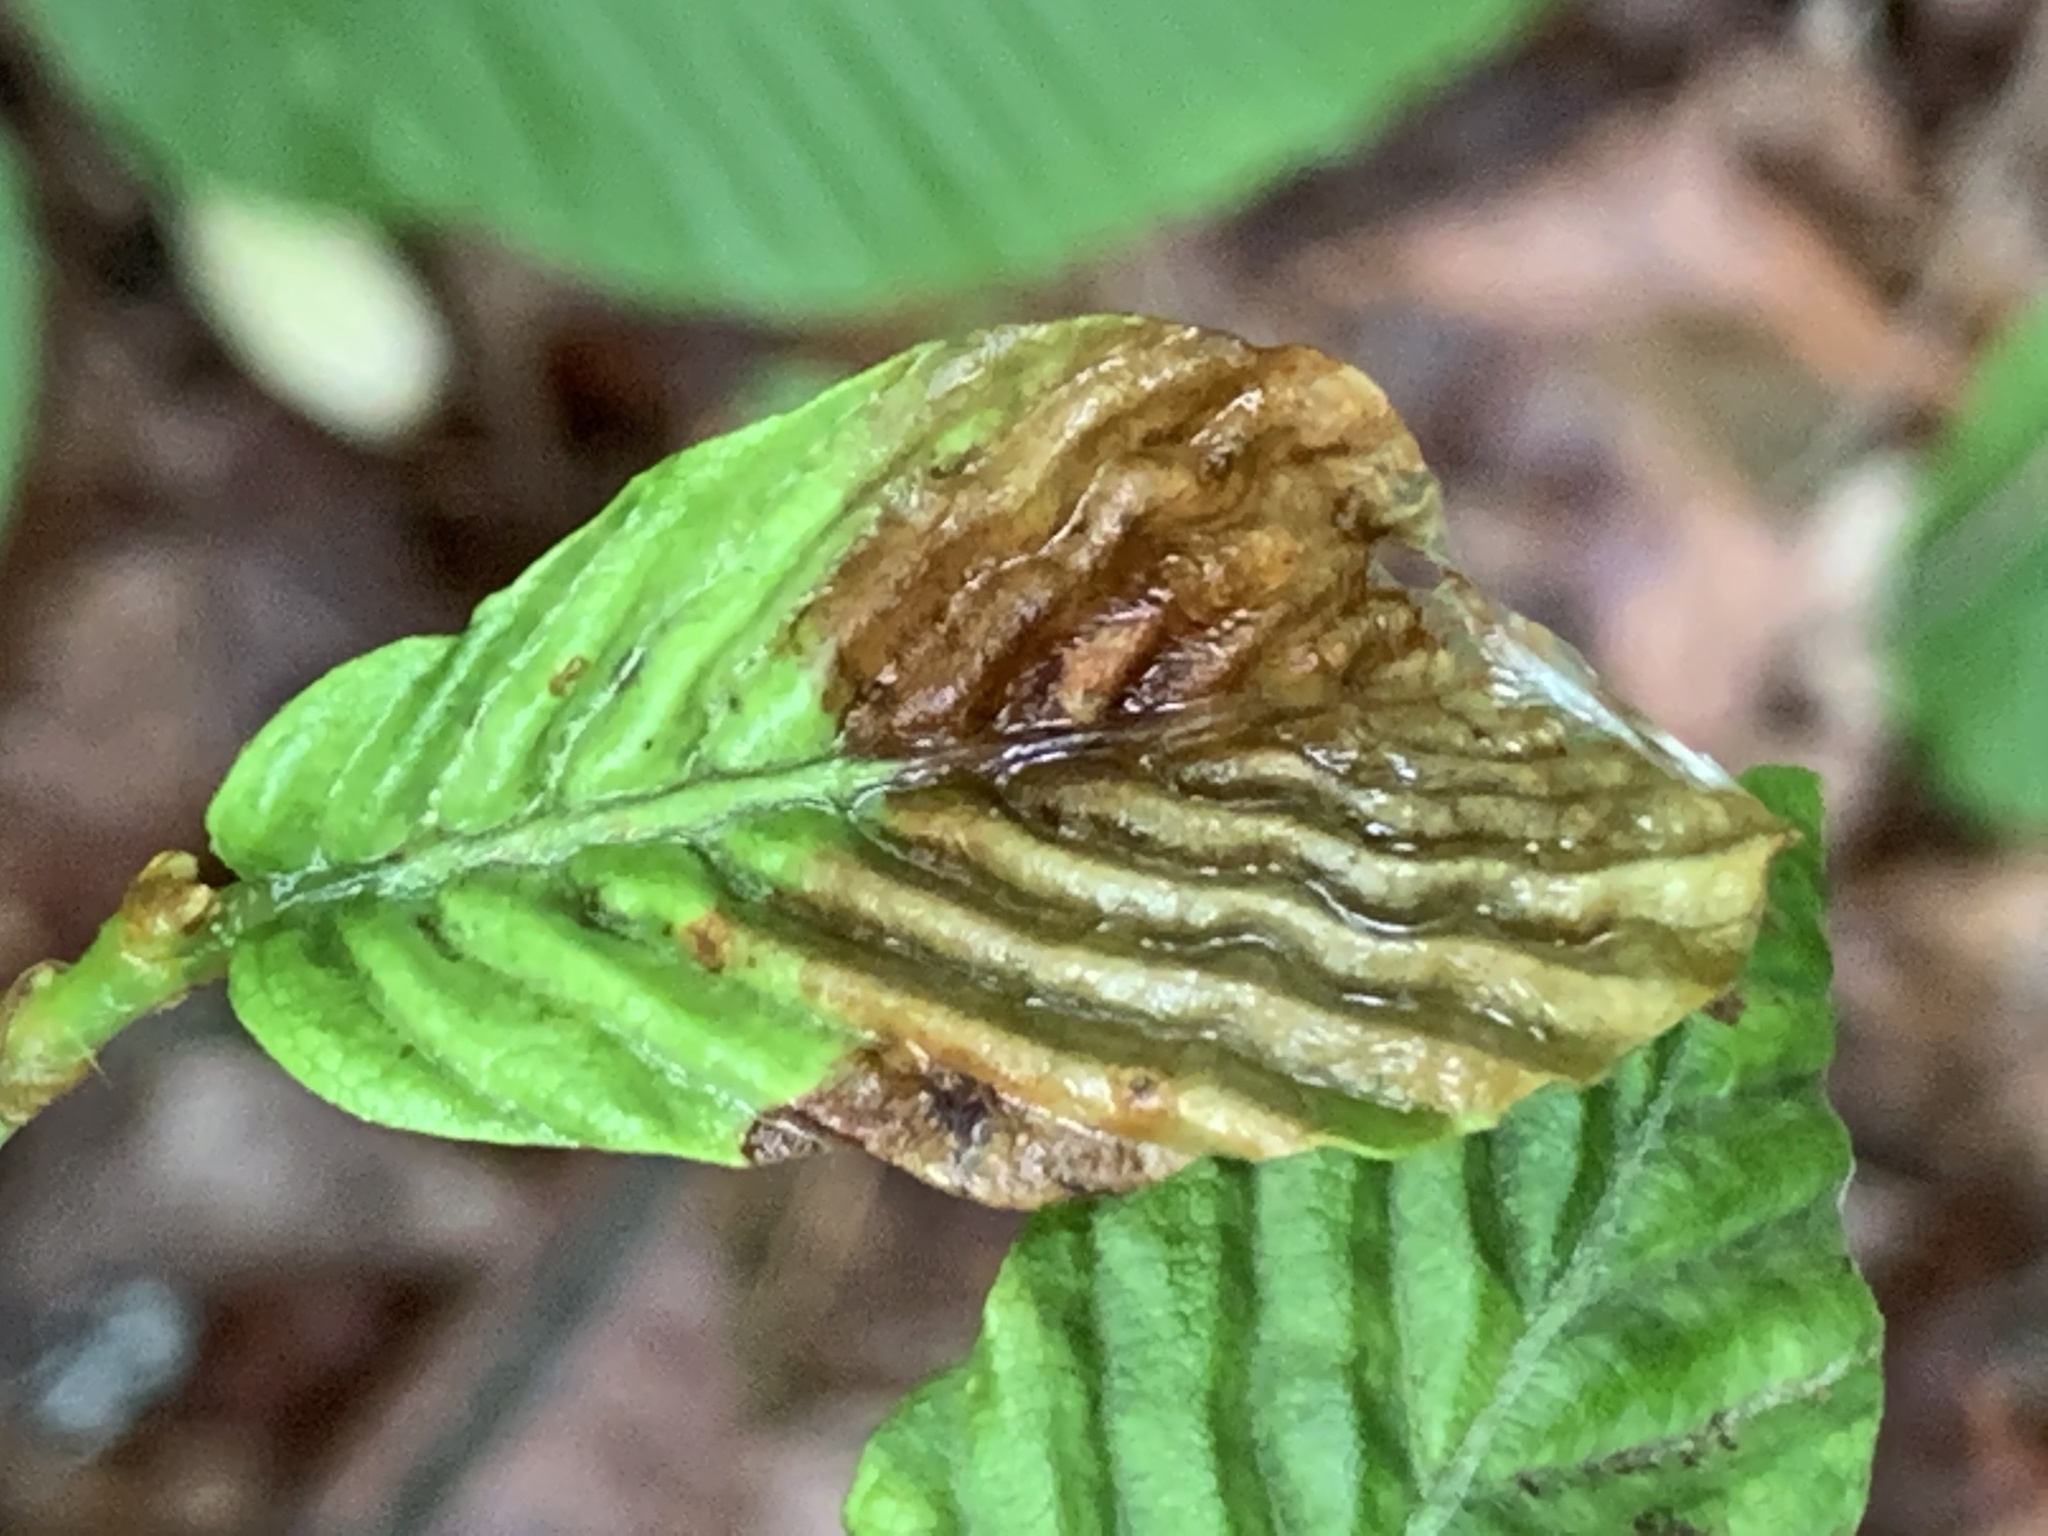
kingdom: Animalia
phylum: Nematoda
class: Chromadorea
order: Rhabditida
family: Anguinidae
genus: Litylenchus
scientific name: Litylenchus crenatae
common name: Beech leaf disease
